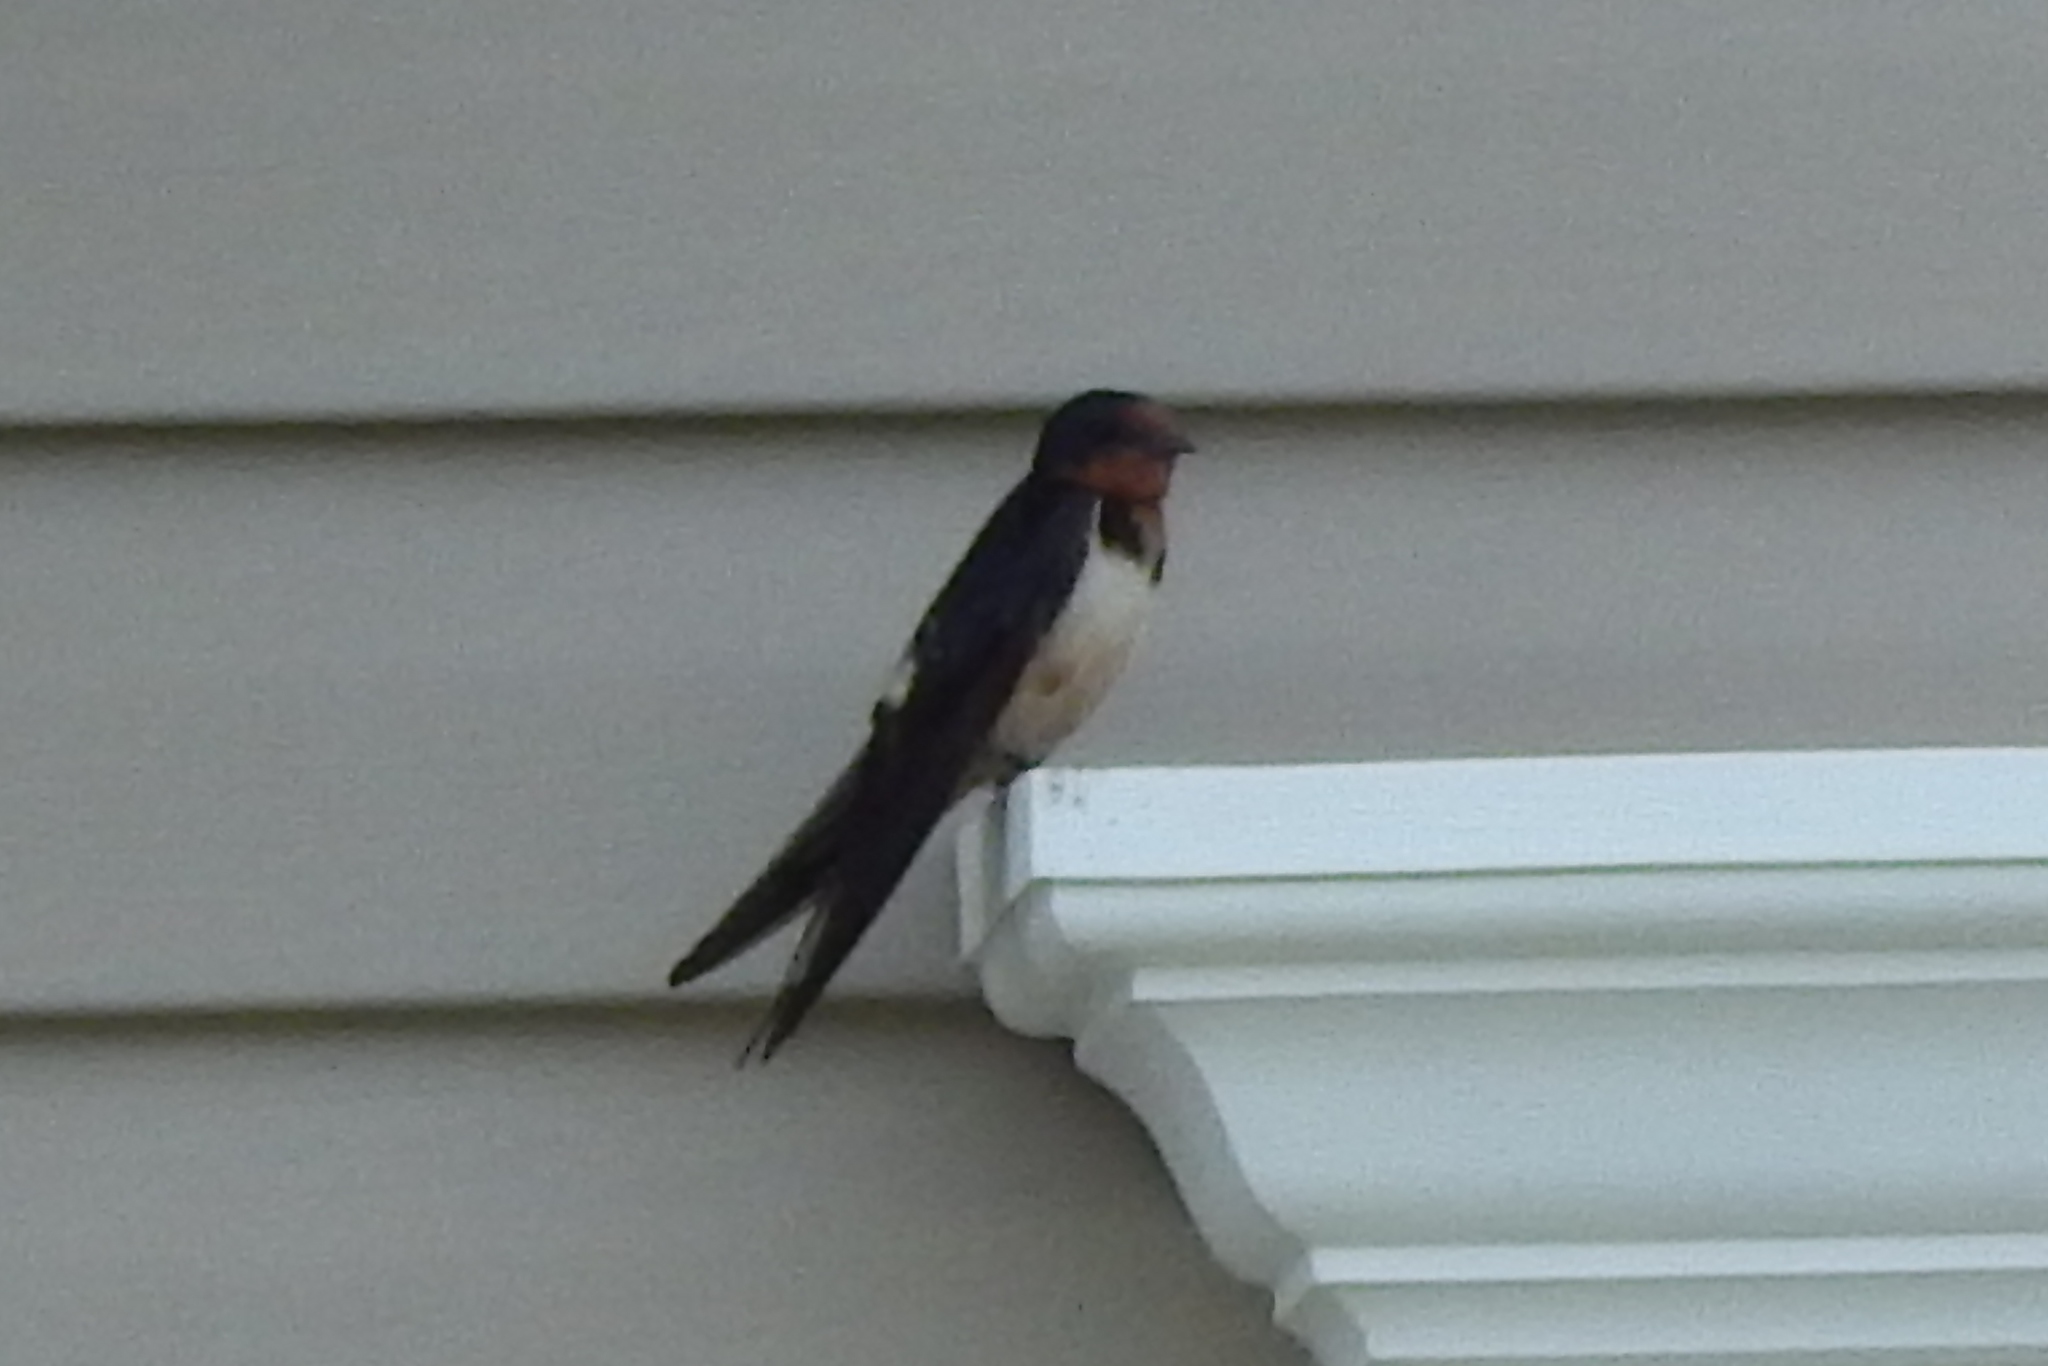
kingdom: Animalia
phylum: Chordata
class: Aves
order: Passeriformes
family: Hirundinidae
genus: Hirundo
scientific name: Hirundo rustica
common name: Barn swallow
